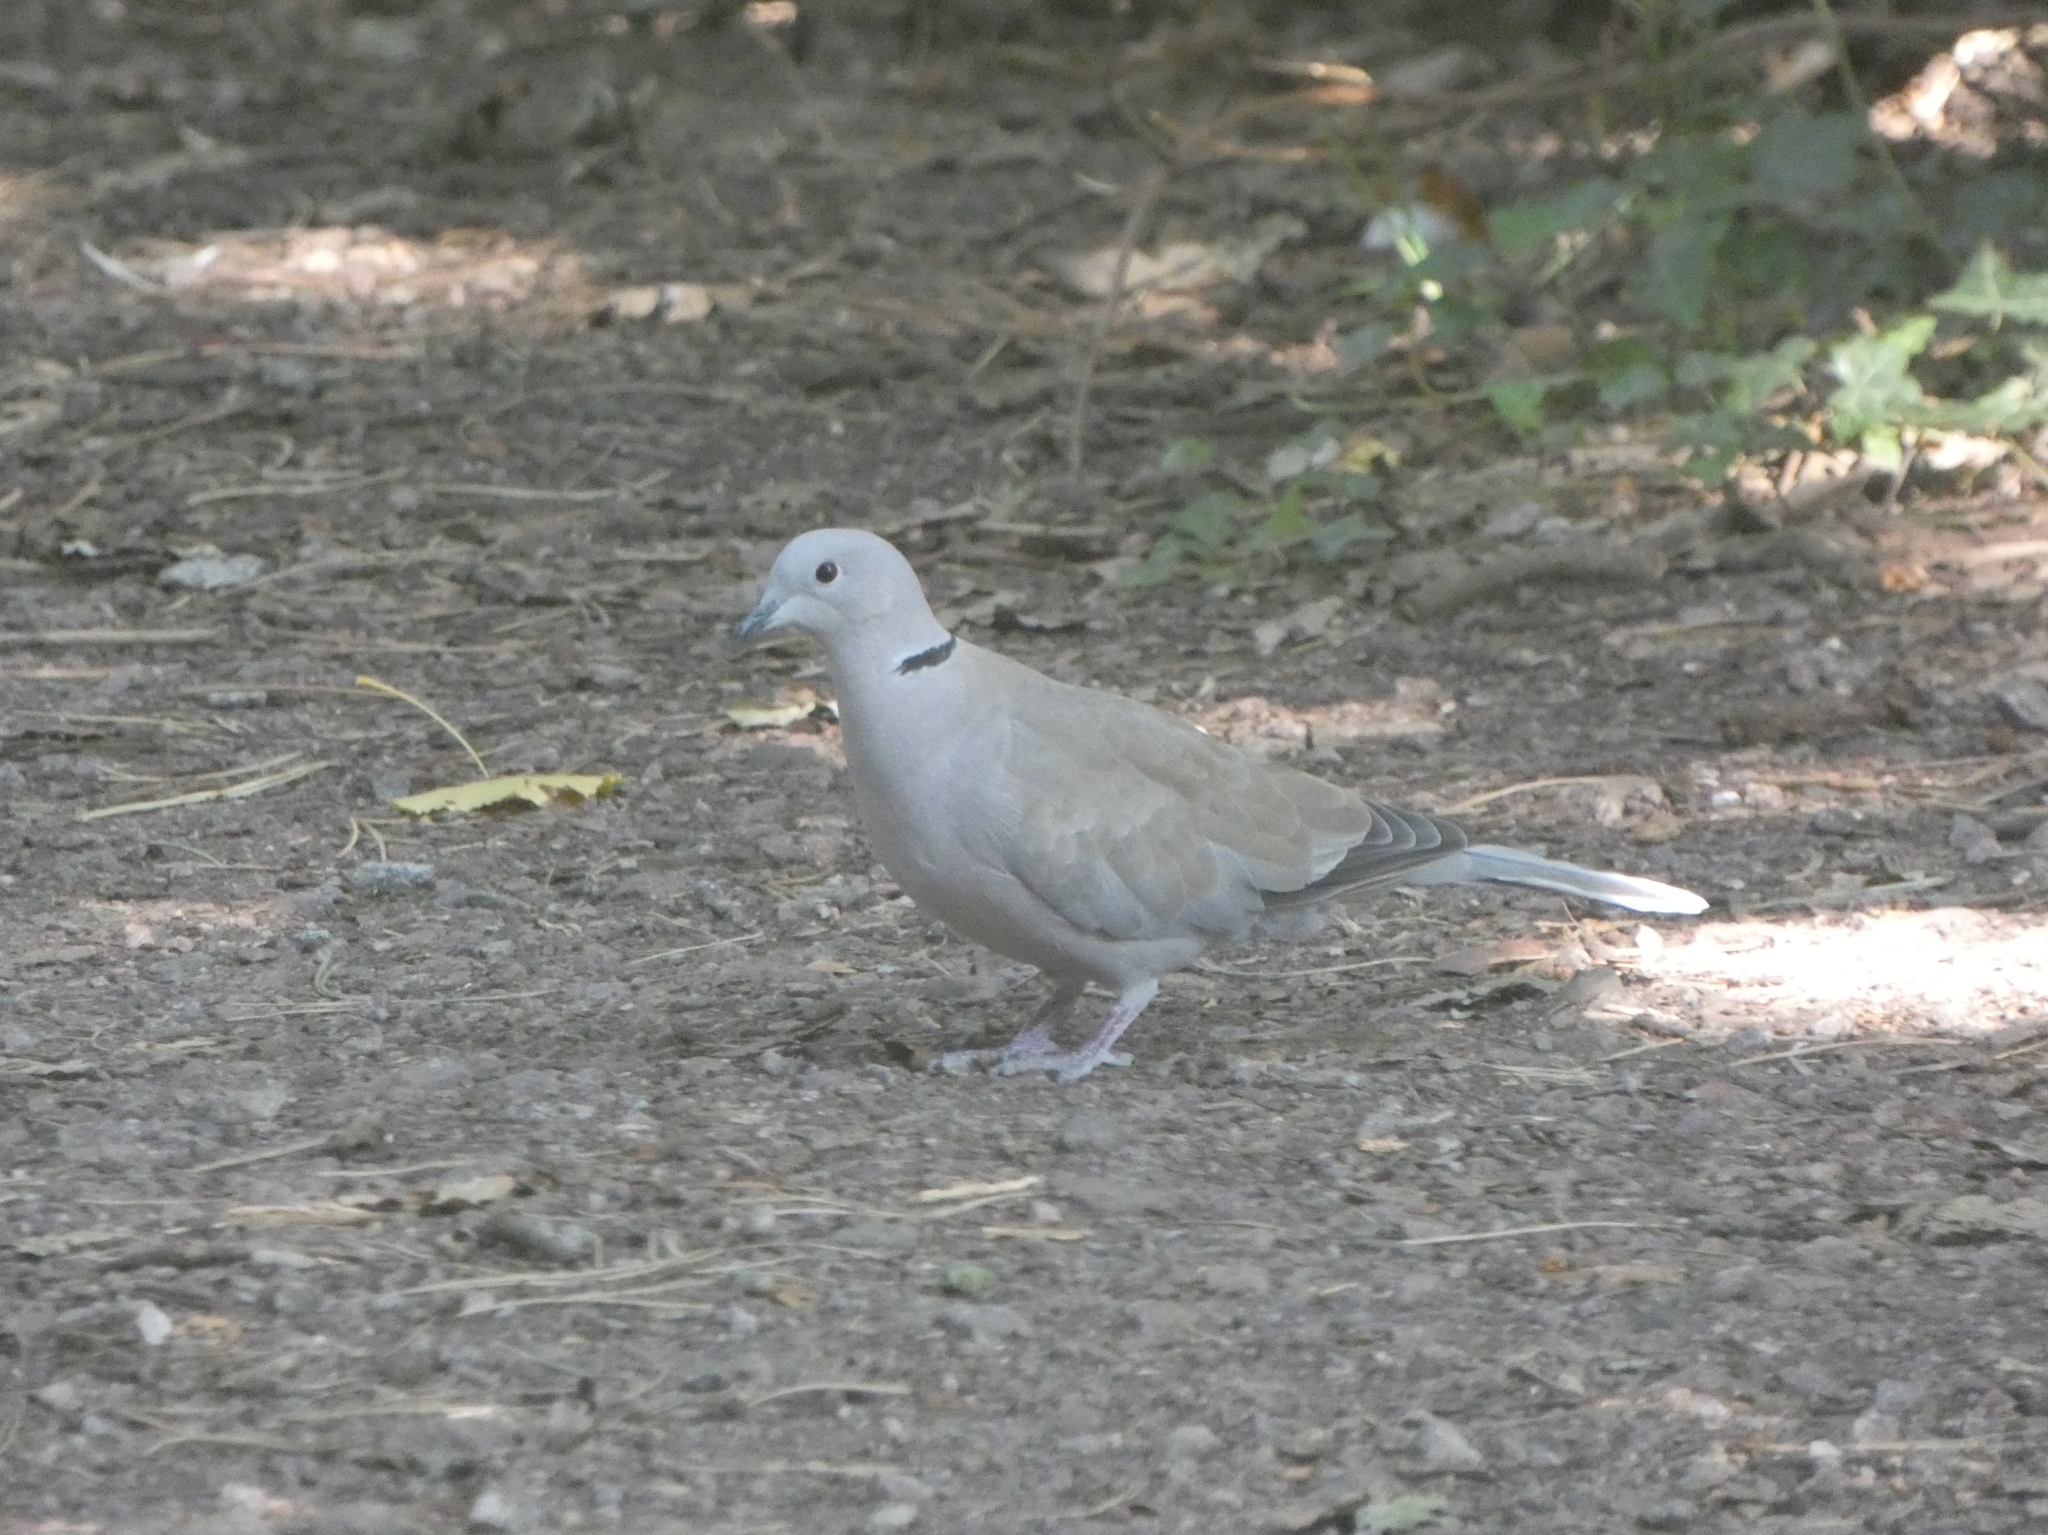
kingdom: Animalia
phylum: Chordata
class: Aves
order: Columbiformes
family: Columbidae
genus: Streptopelia
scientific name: Streptopelia decaocto
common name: Eurasian collared dove
